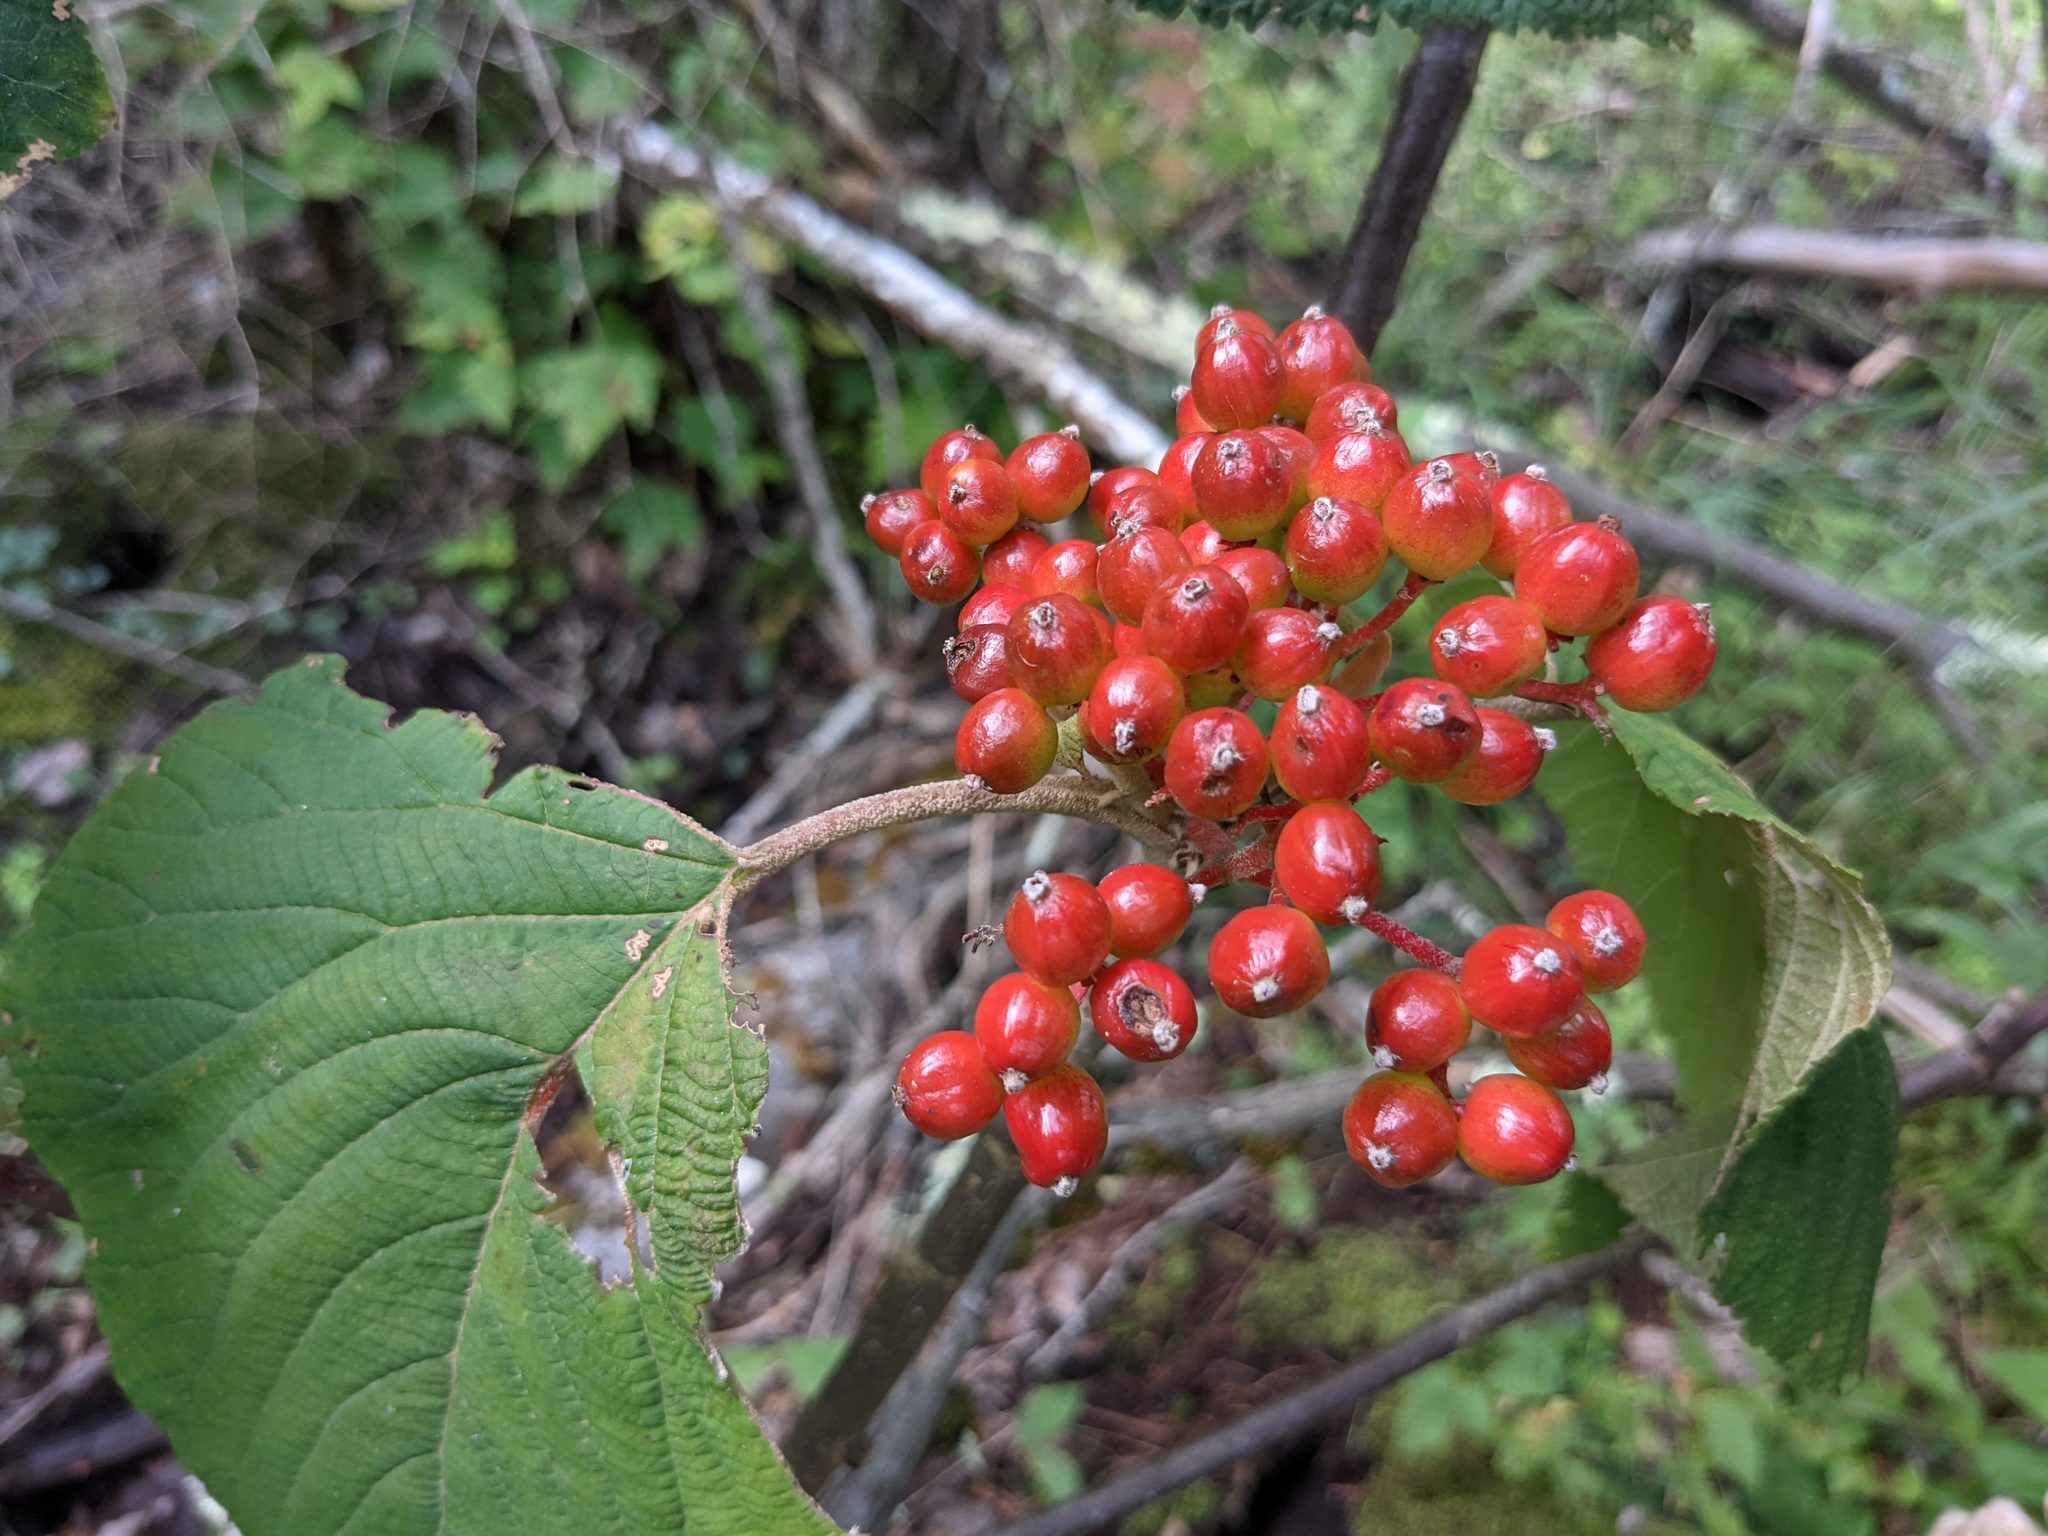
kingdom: Plantae
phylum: Tracheophyta
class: Magnoliopsida
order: Dipsacales
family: Viburnaceae
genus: Viburnum
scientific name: Viburnum lantanoides
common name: Hobblebush
